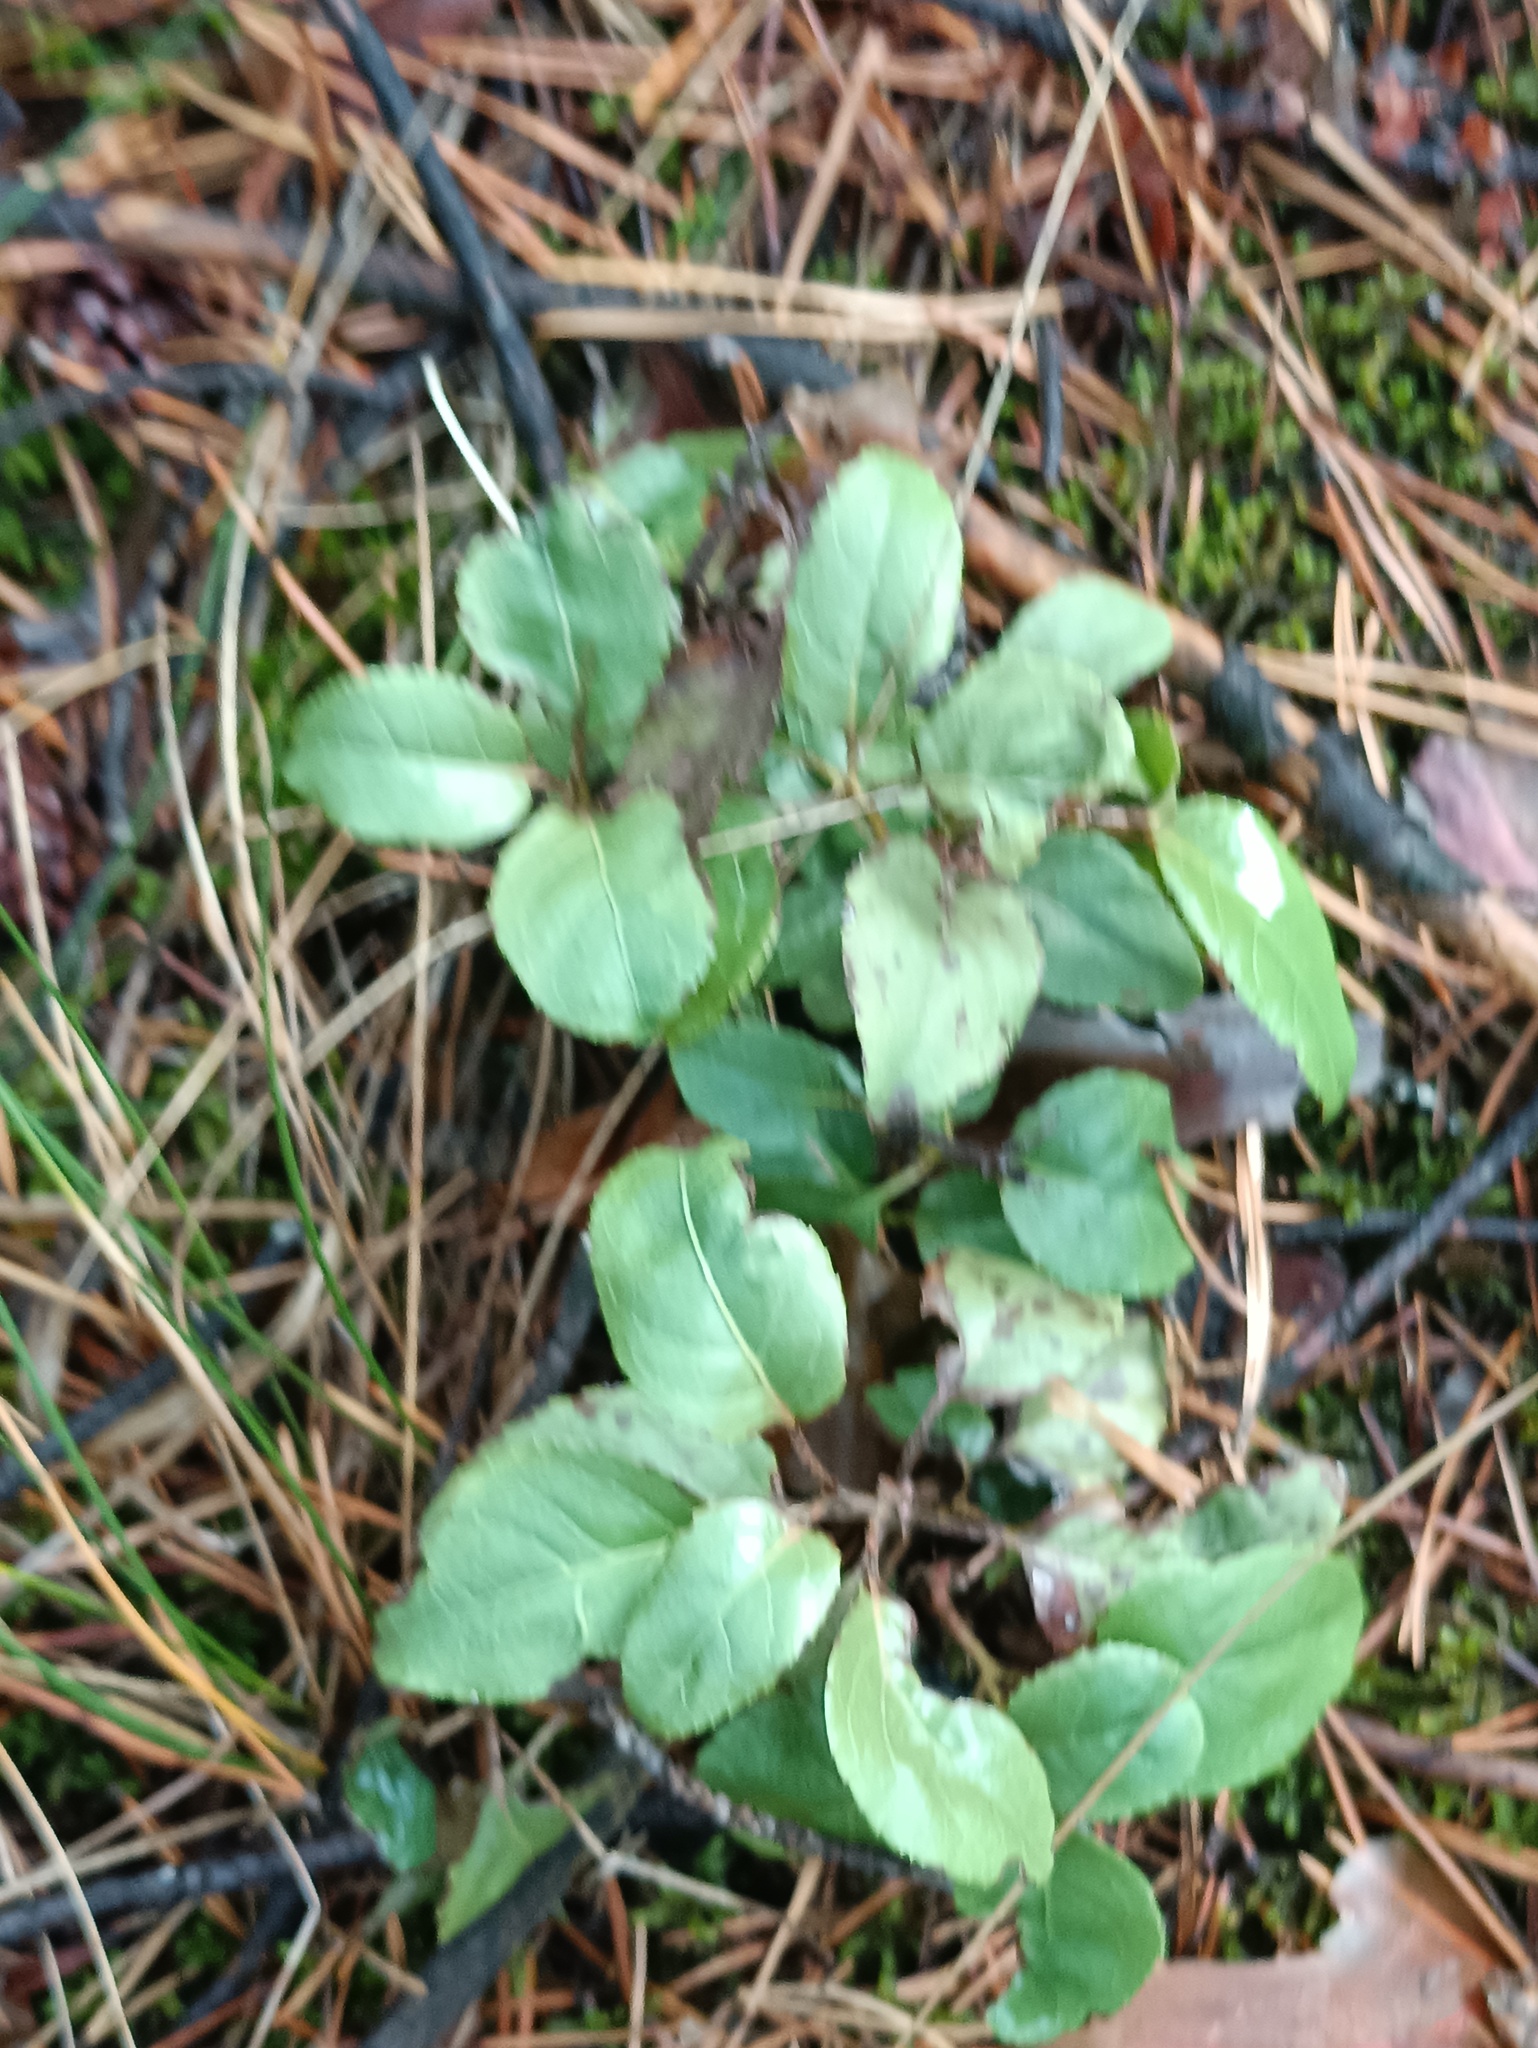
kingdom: Plantae
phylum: Tracheophyta
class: Magnoliopsida
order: Ericales
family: Ericaceae
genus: Orthilia
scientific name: Orthilia secunda
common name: One-sided orthilia
